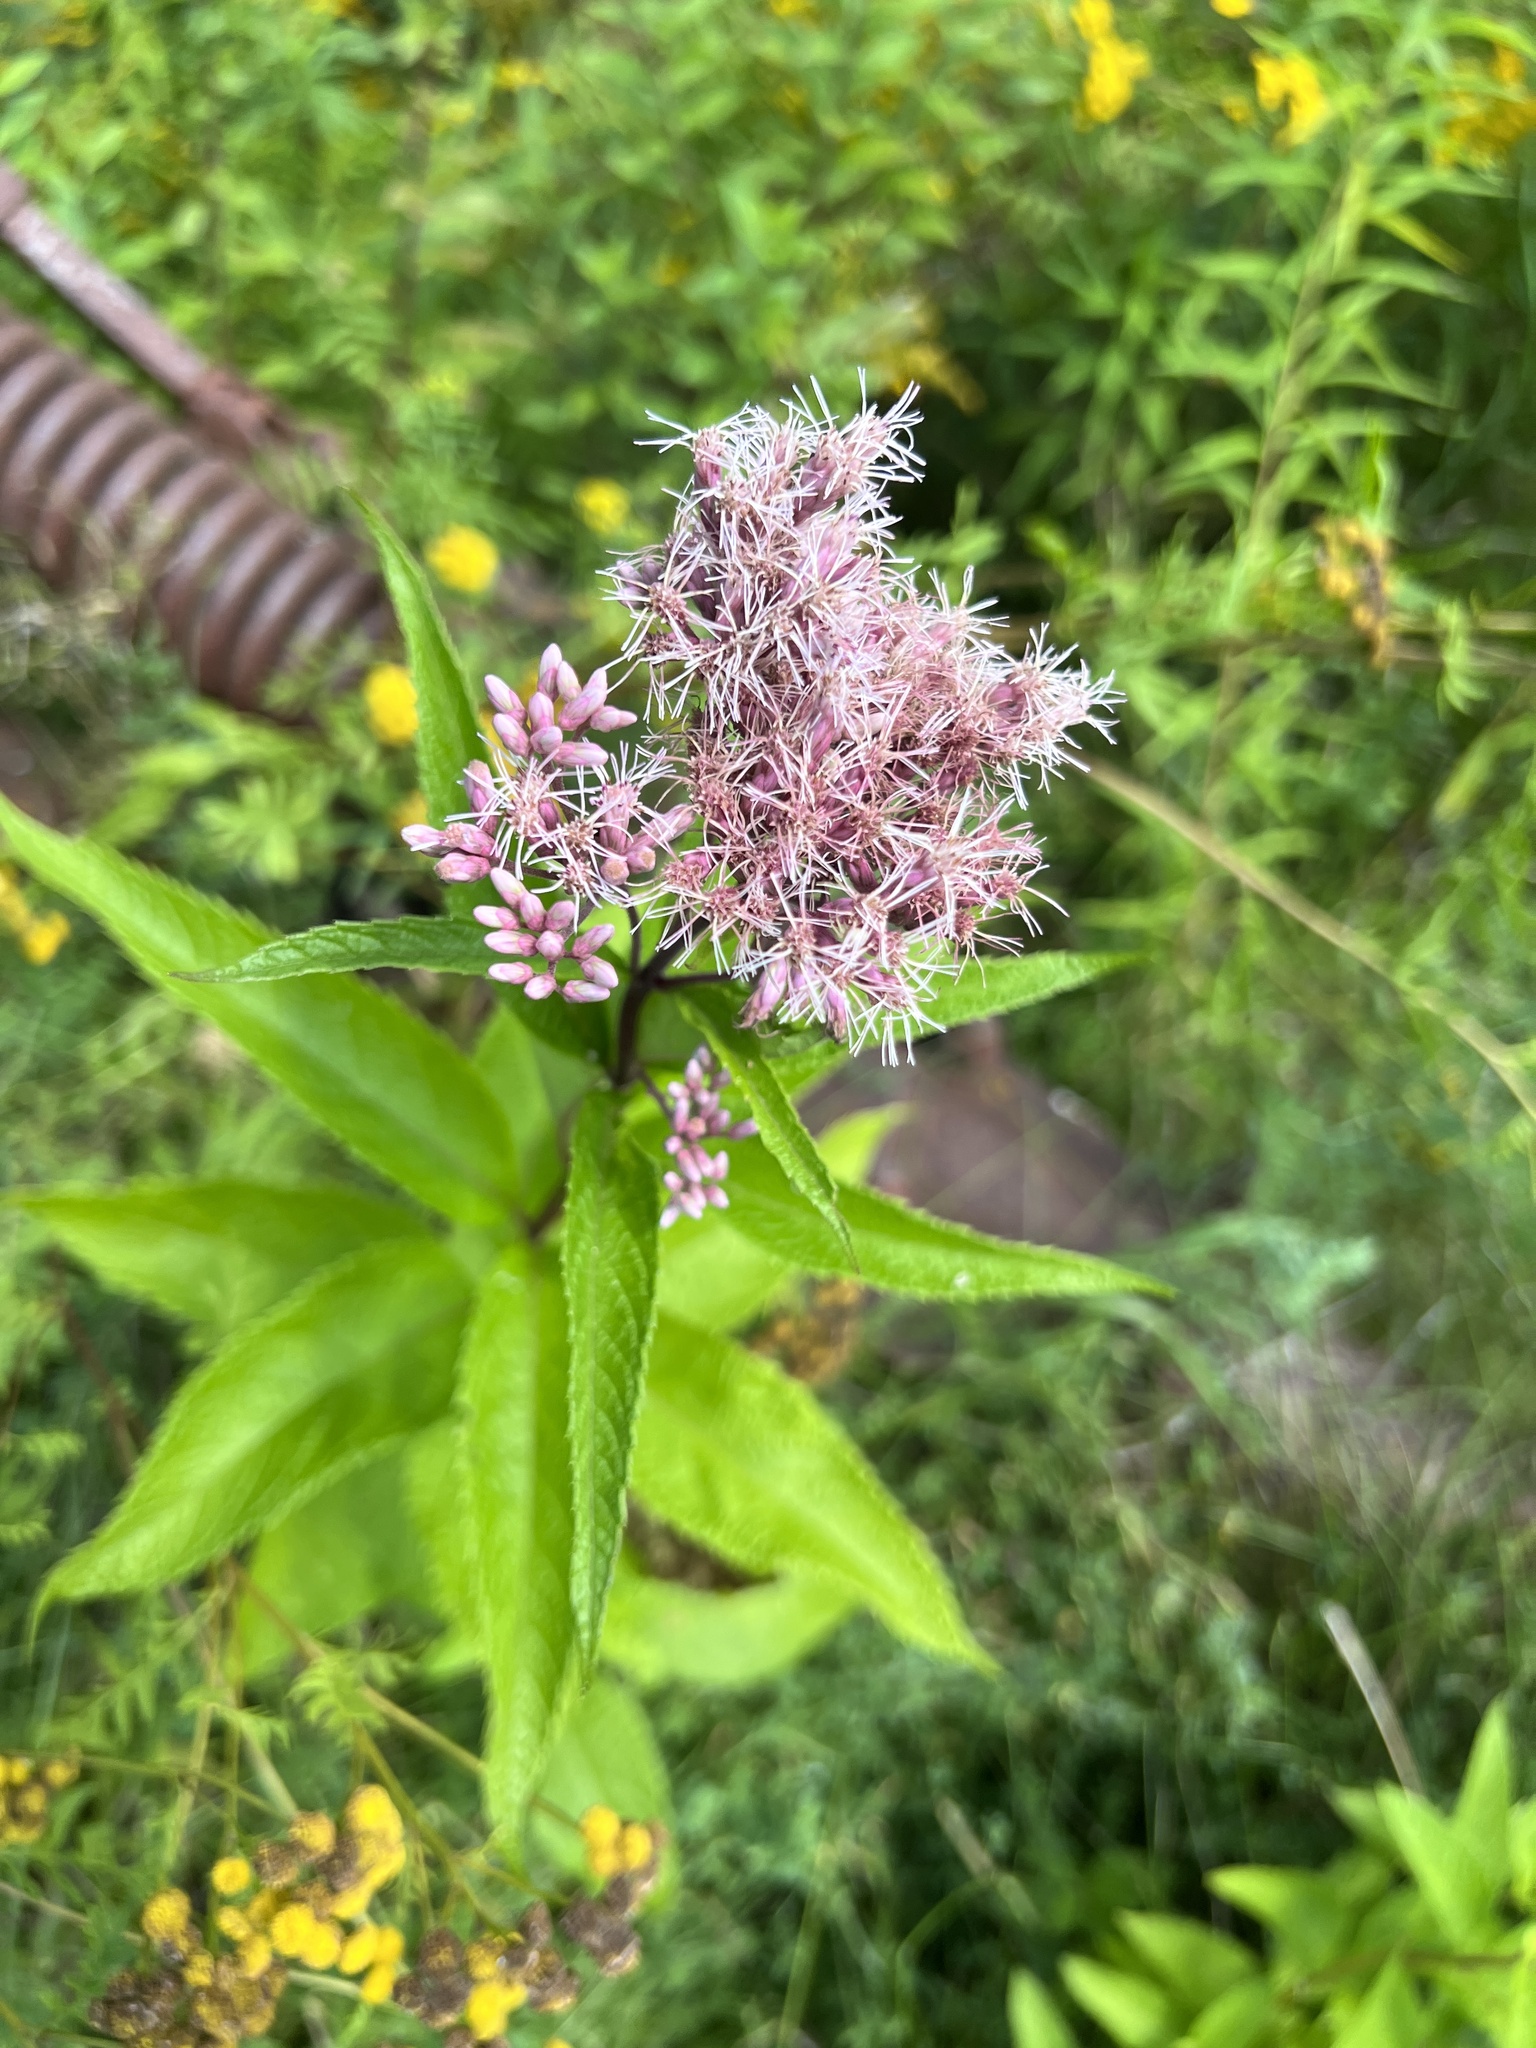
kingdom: Plantae
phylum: Tracheophyta
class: Magnoliopsida
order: Asterales
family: Asteraceae
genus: Eutrochium
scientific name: Eutrochium maculatum
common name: Spotted joe pye weed
